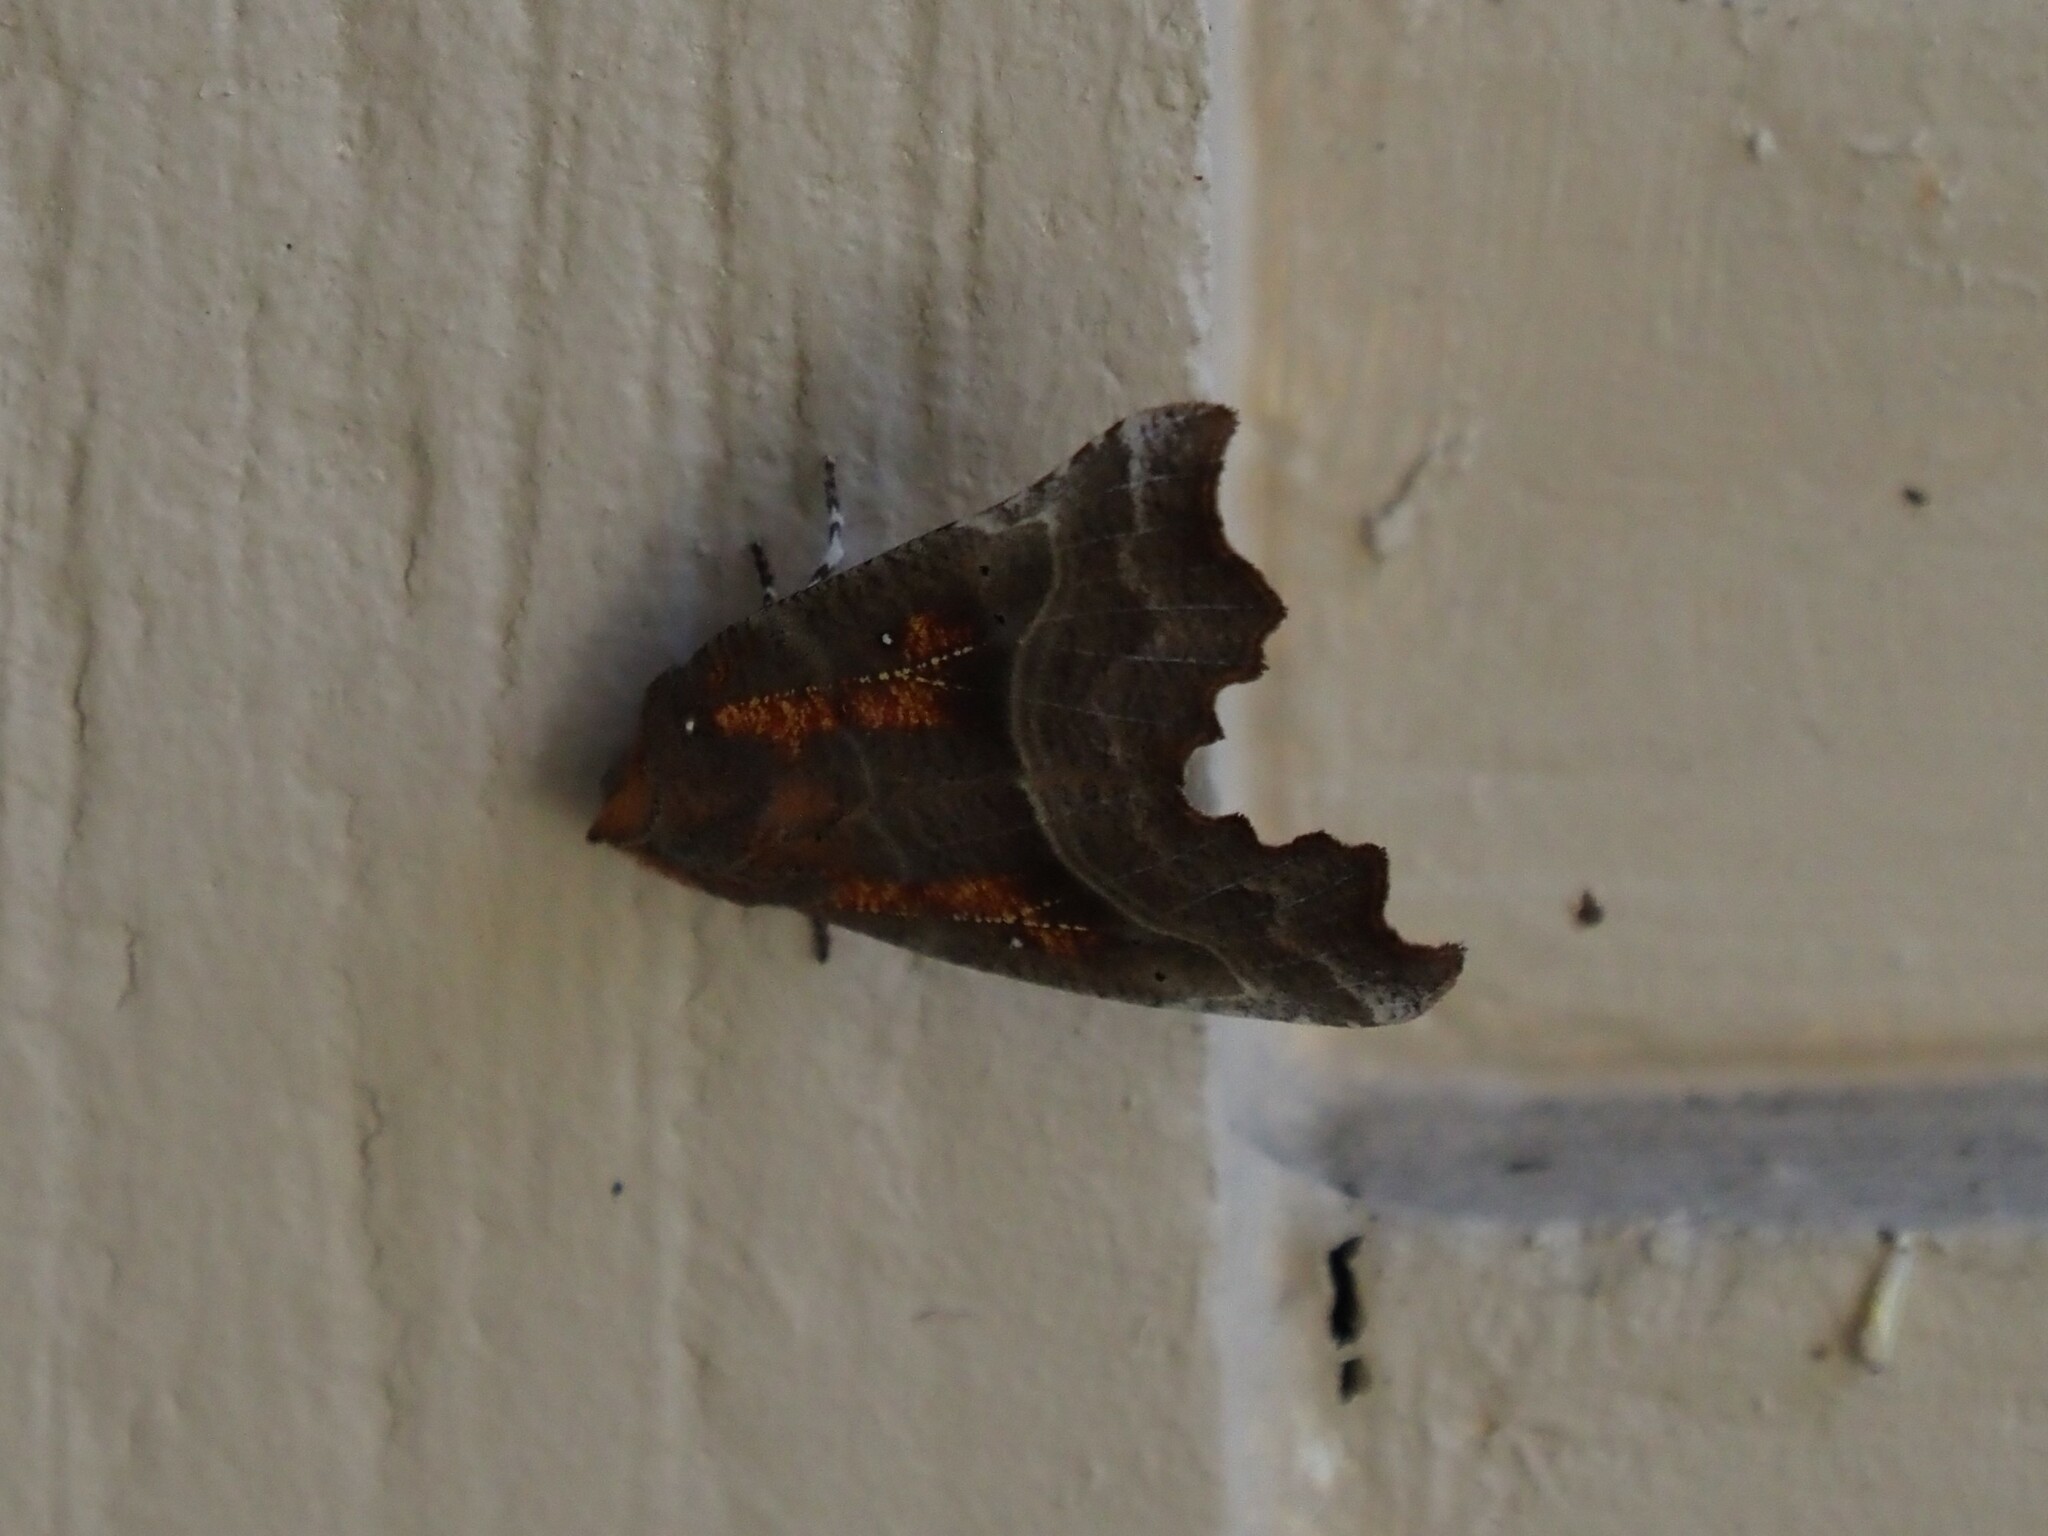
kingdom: Animalia
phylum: Arthropoda
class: Insecta
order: Lepidoptera
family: Erebidae
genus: Scoliopteryx
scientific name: Scoliopteryx libatrix
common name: Herald
